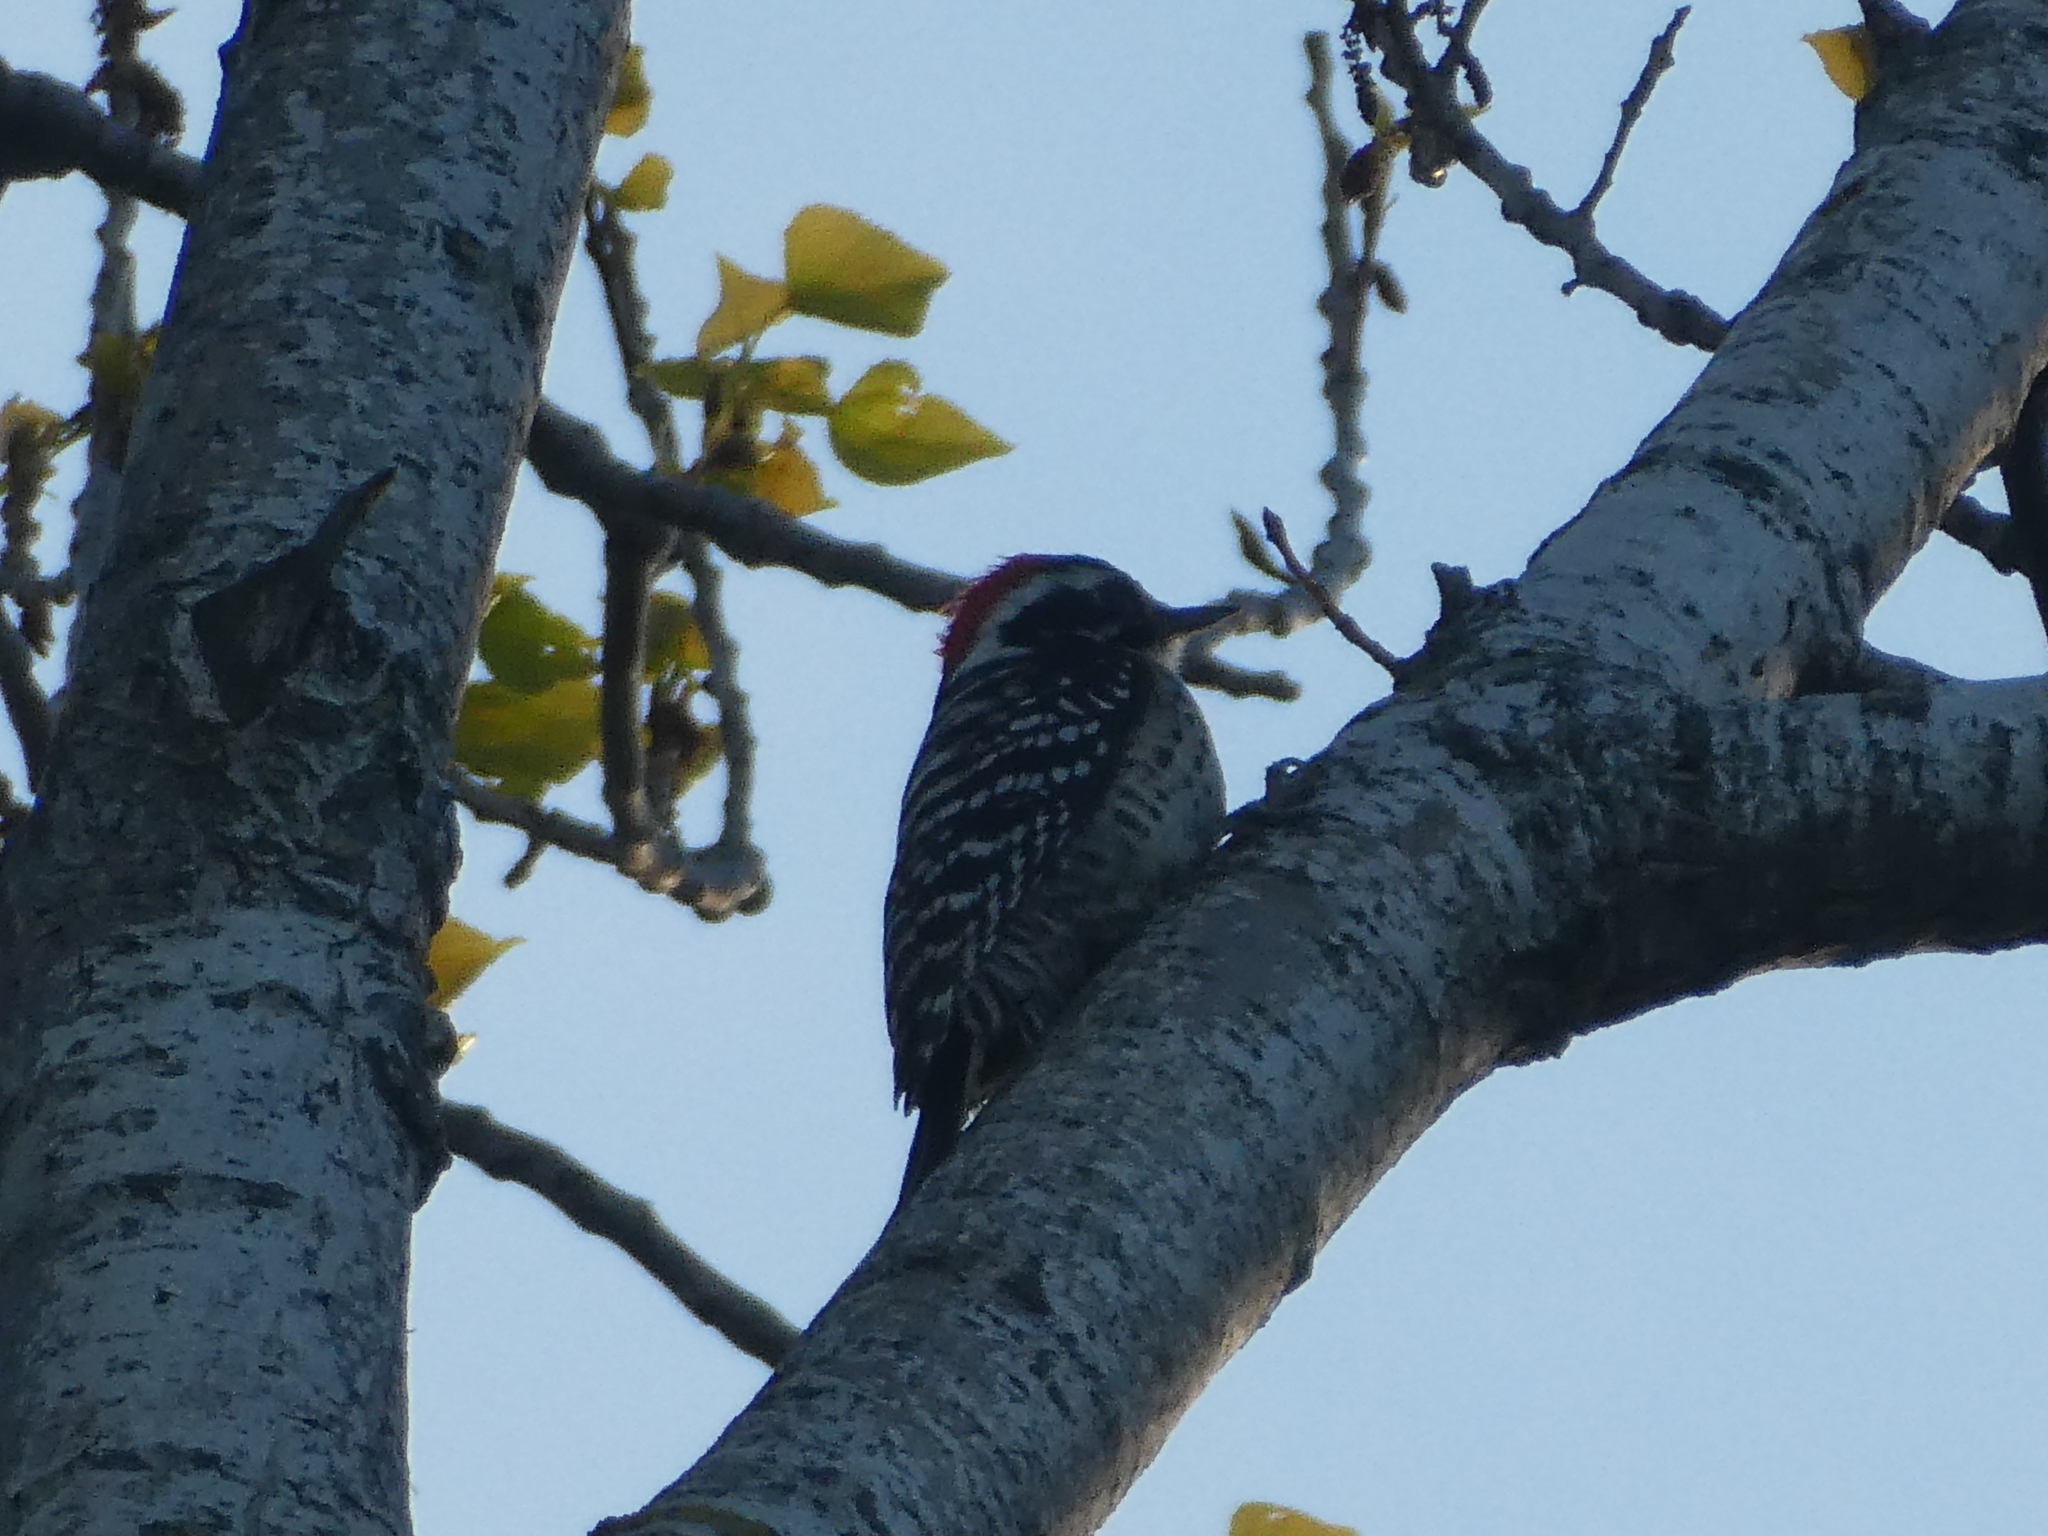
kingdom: Animalia
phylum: Chordata
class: Aves
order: Piciformes
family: Picidae
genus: Dryobates
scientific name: Dryobates nuttallii
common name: Nuttall's woodpecker
